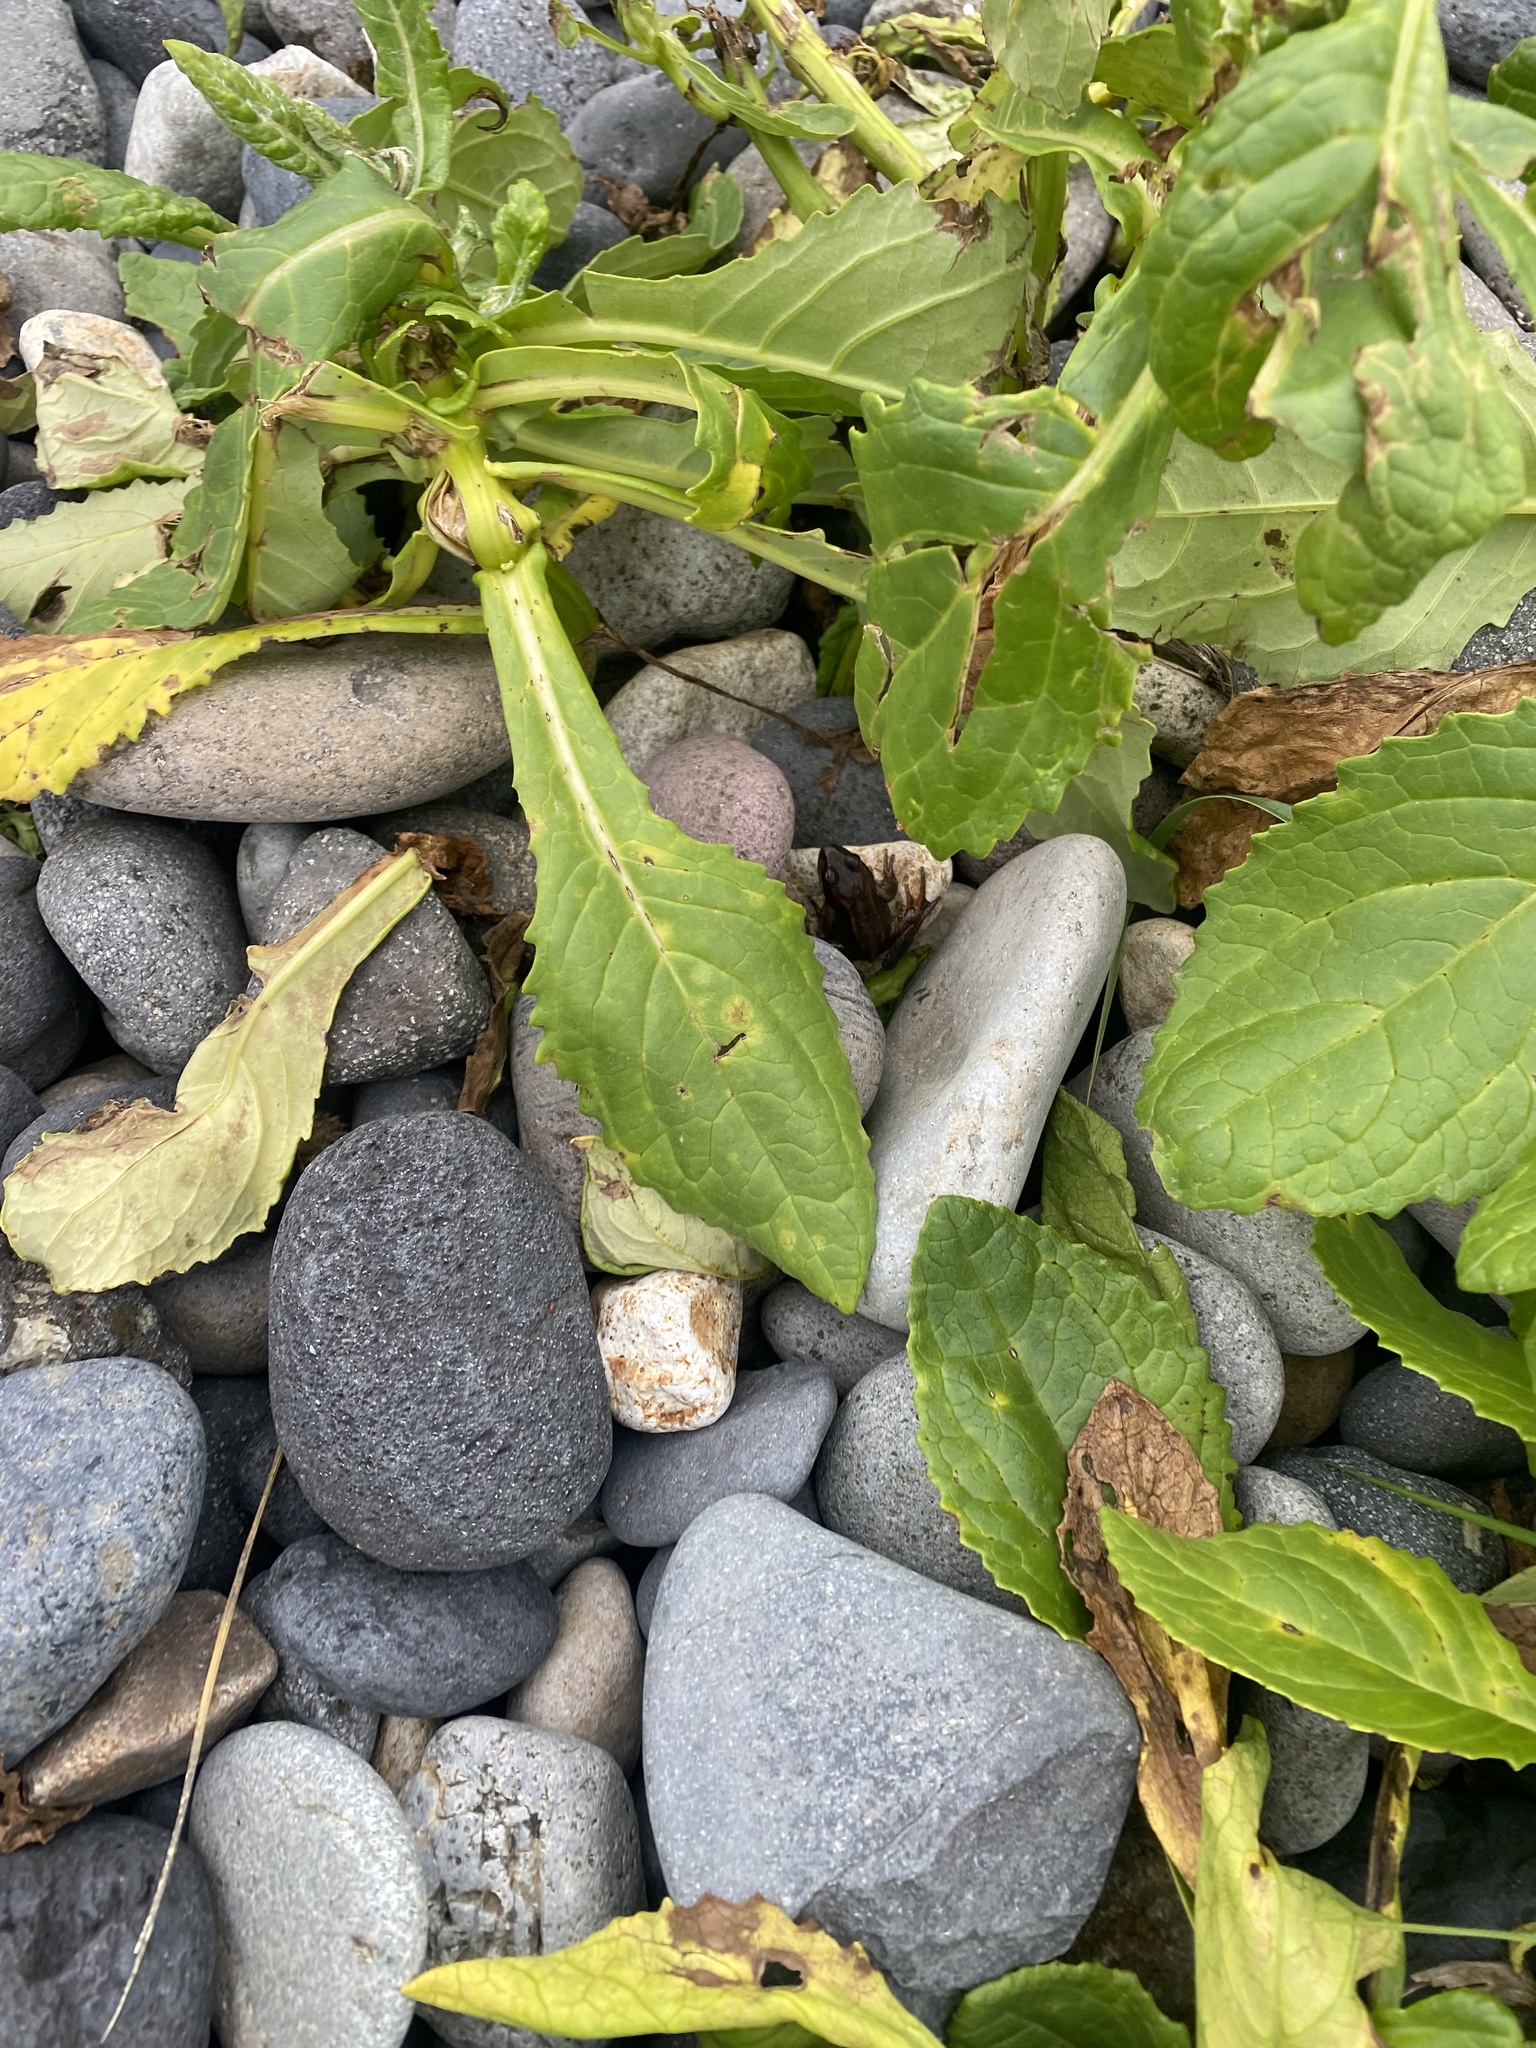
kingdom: Plantae
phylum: Tracheophyta
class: Magnoliopsida
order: Asterales
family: Asteraceae
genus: Jacobaea
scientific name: Jacobaea pseudoarnica
